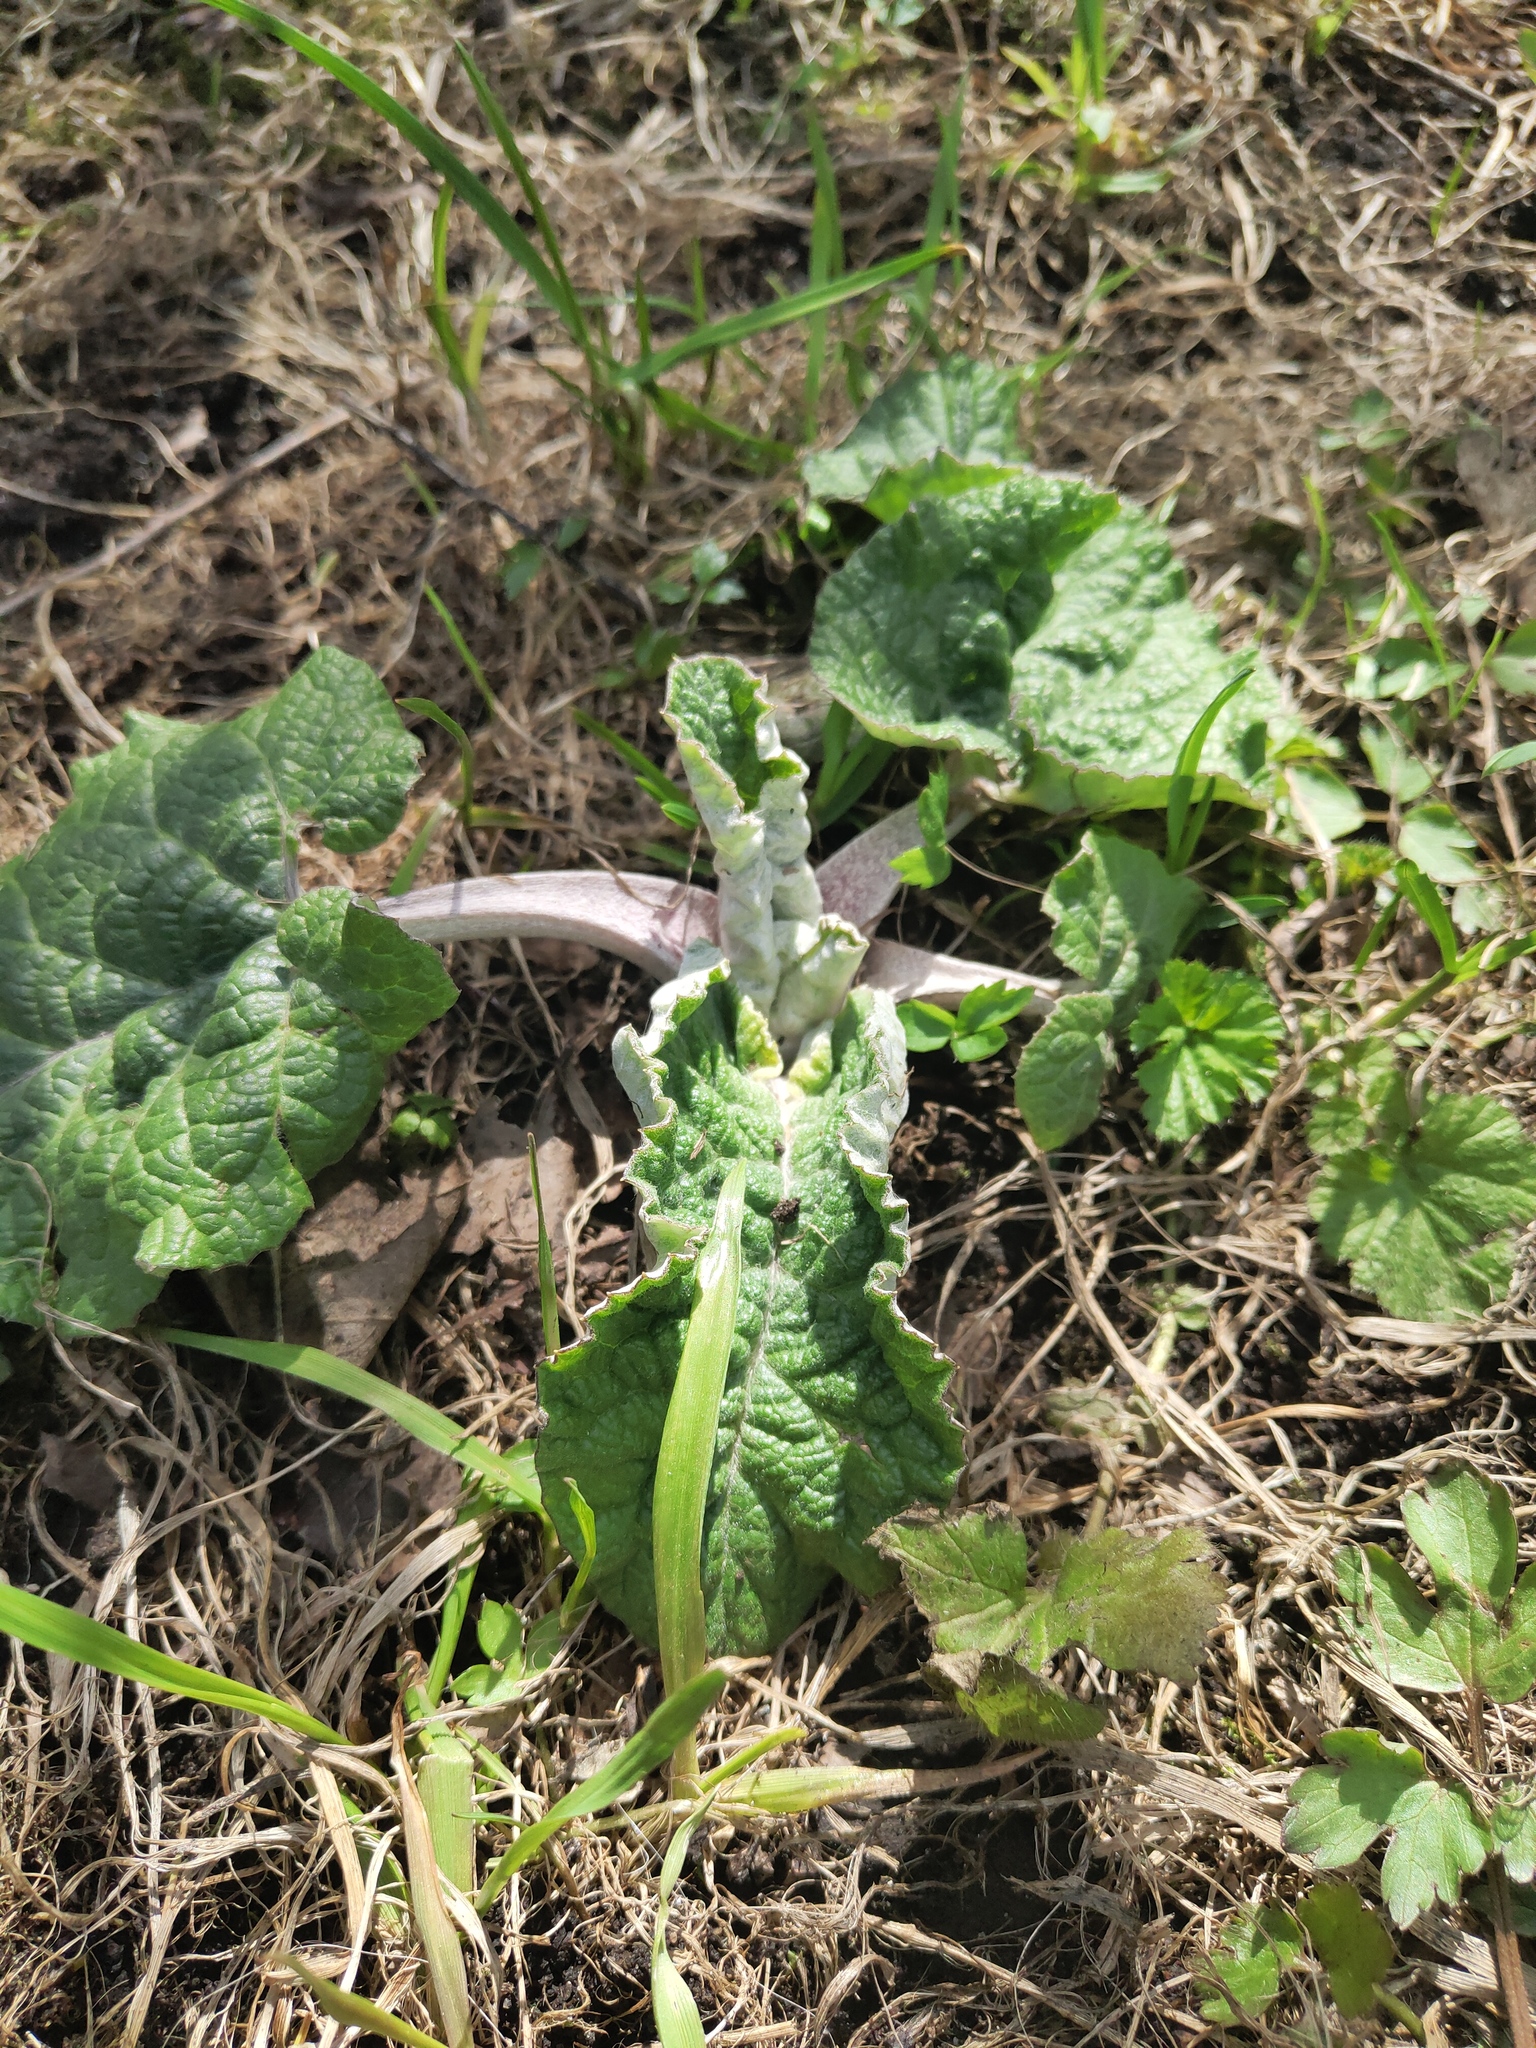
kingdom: Plantae
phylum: Tracheophyta
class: Magnoliopsida
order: Asterales
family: Asteraceae
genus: Arctium
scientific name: Arctium tomentosum
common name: Woolly burdock
